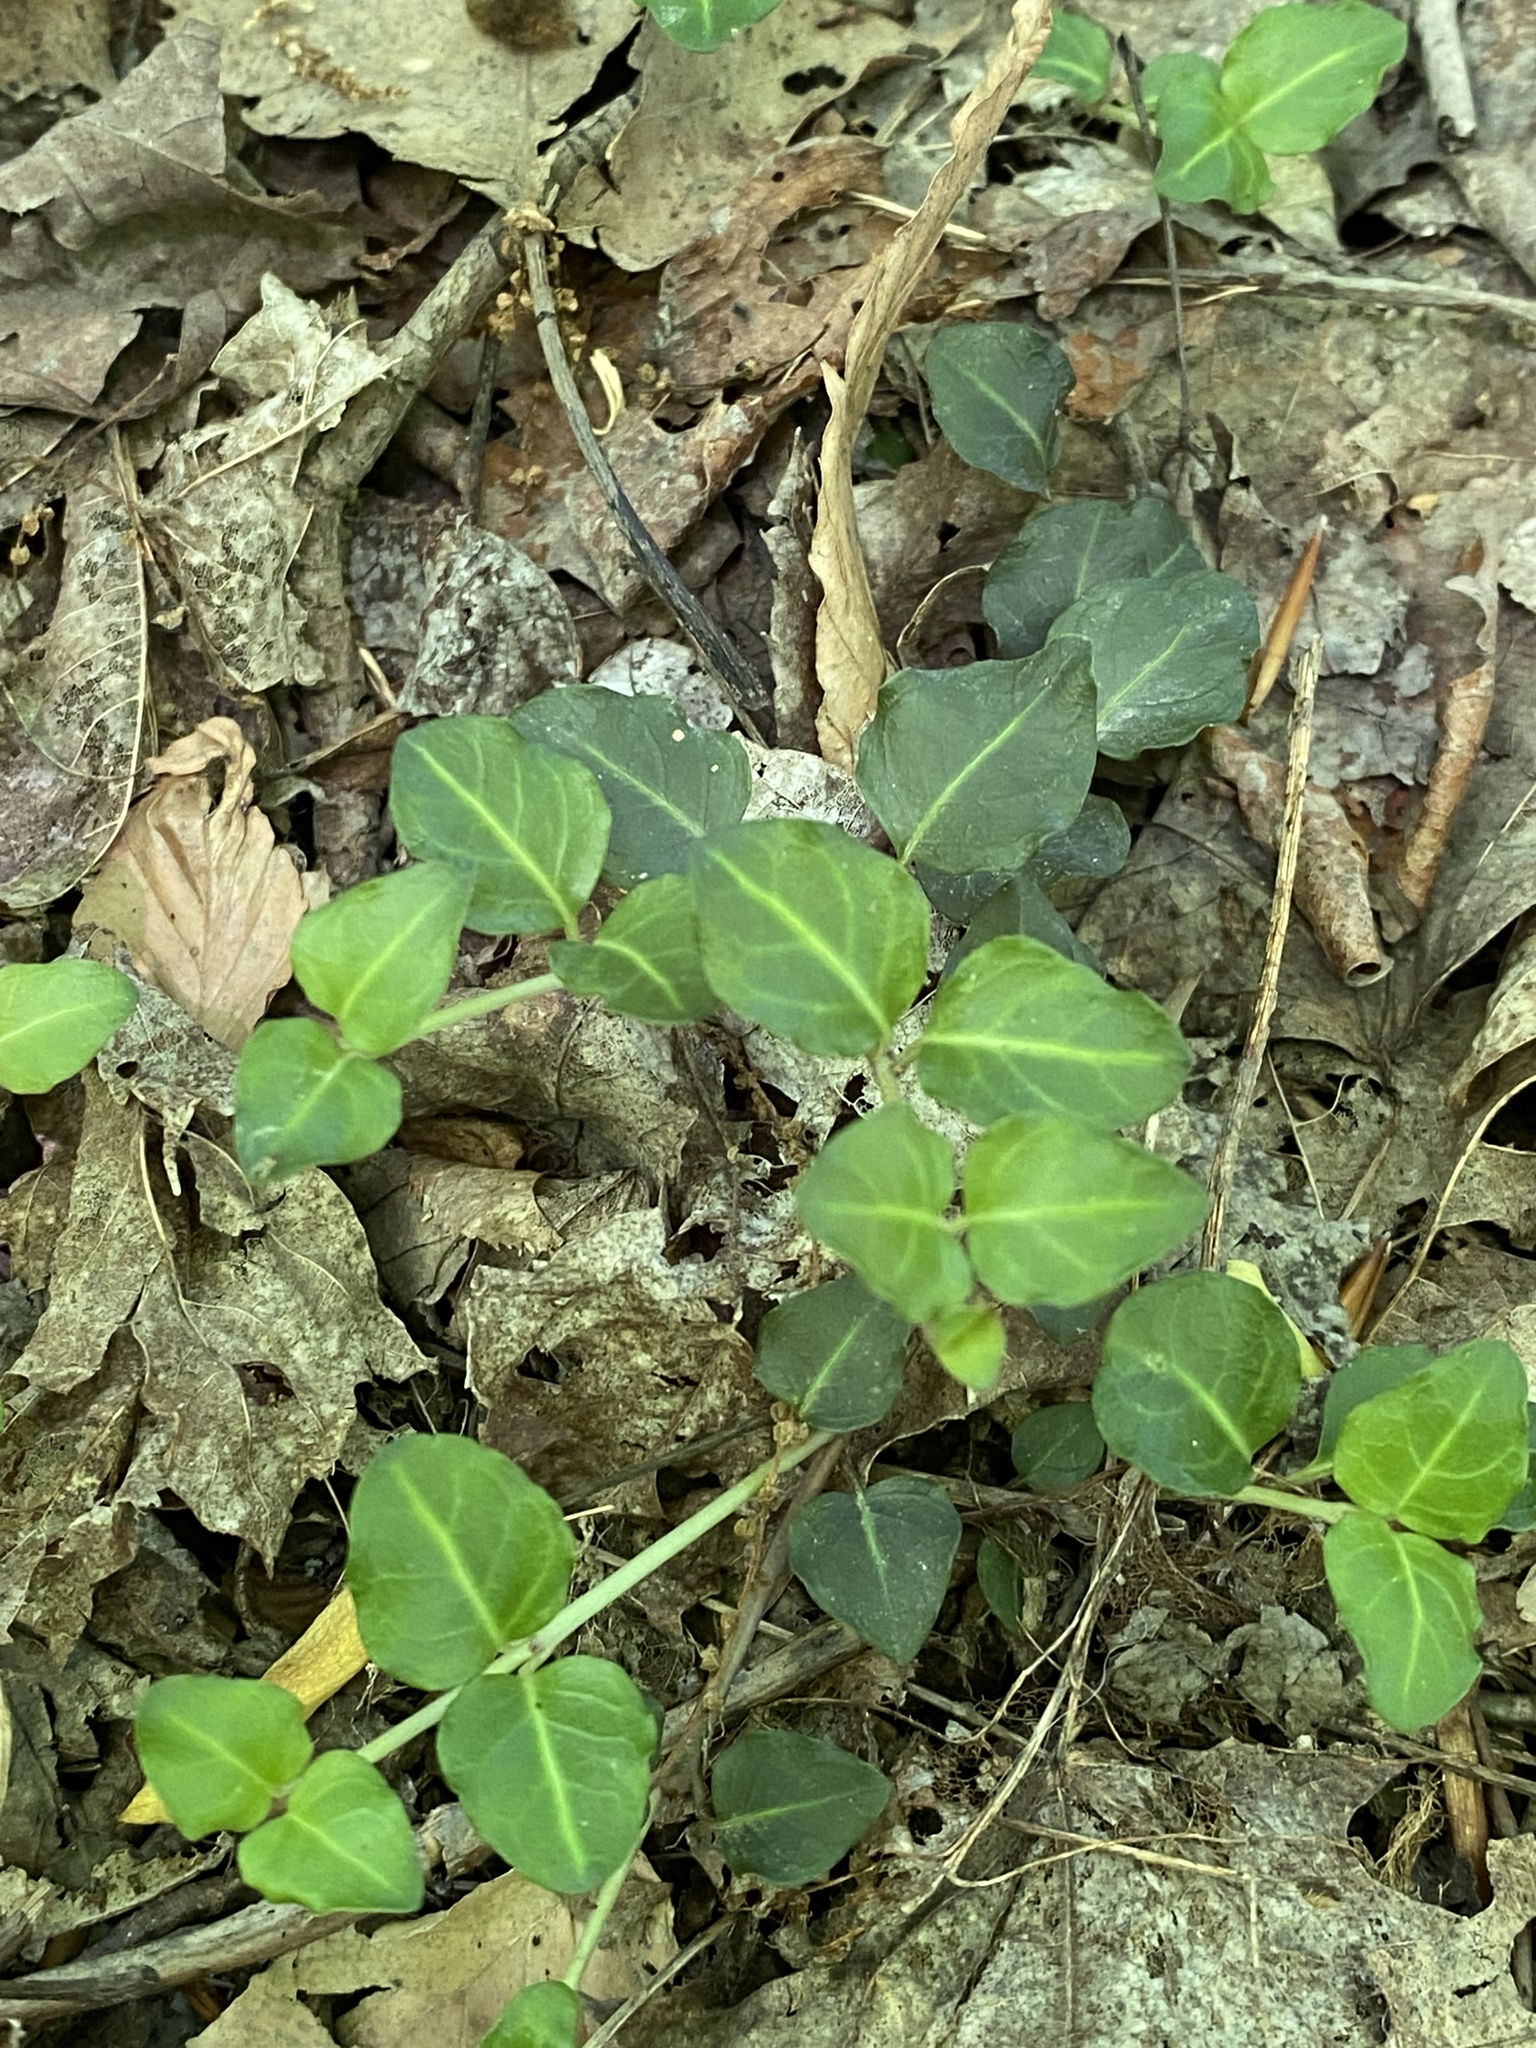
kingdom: Plantae
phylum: Tracheophyta
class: Magnoliopsida
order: Gentianales
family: Rubiaceae
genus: Mitchella
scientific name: Mitchella repens
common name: Partridge-berry
